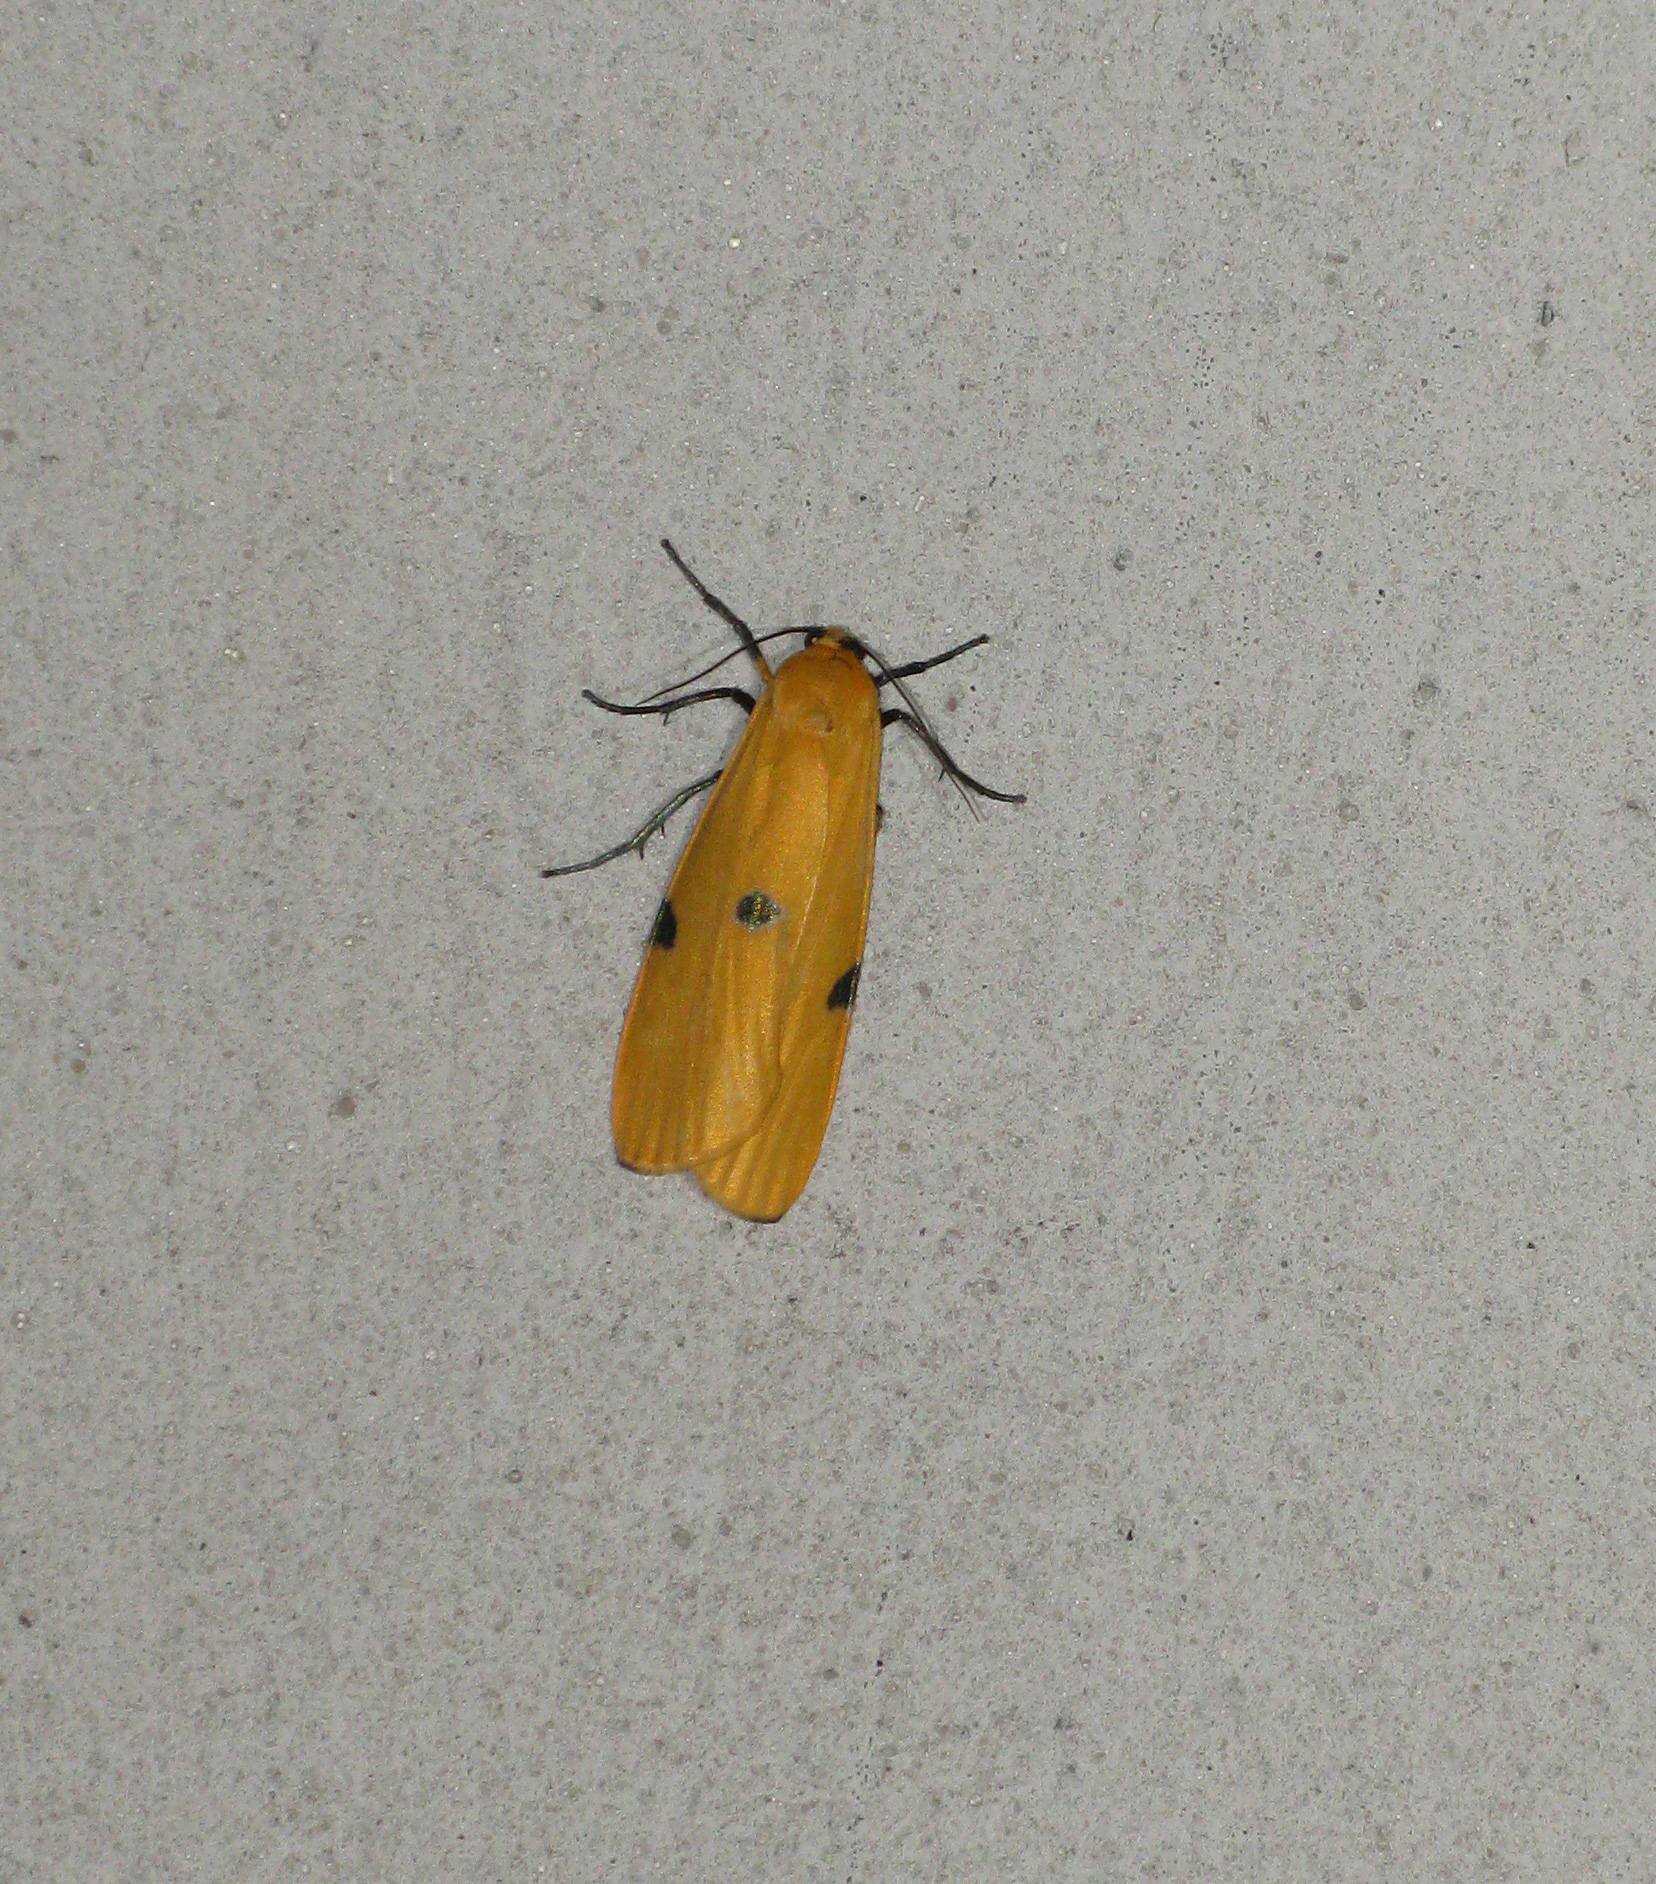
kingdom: Animalia
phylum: Arthropoda
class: Insecta
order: Lepidoptera
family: Erebidae
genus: Lithosia
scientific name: Lithosia quadra
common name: Four-spotted footman
